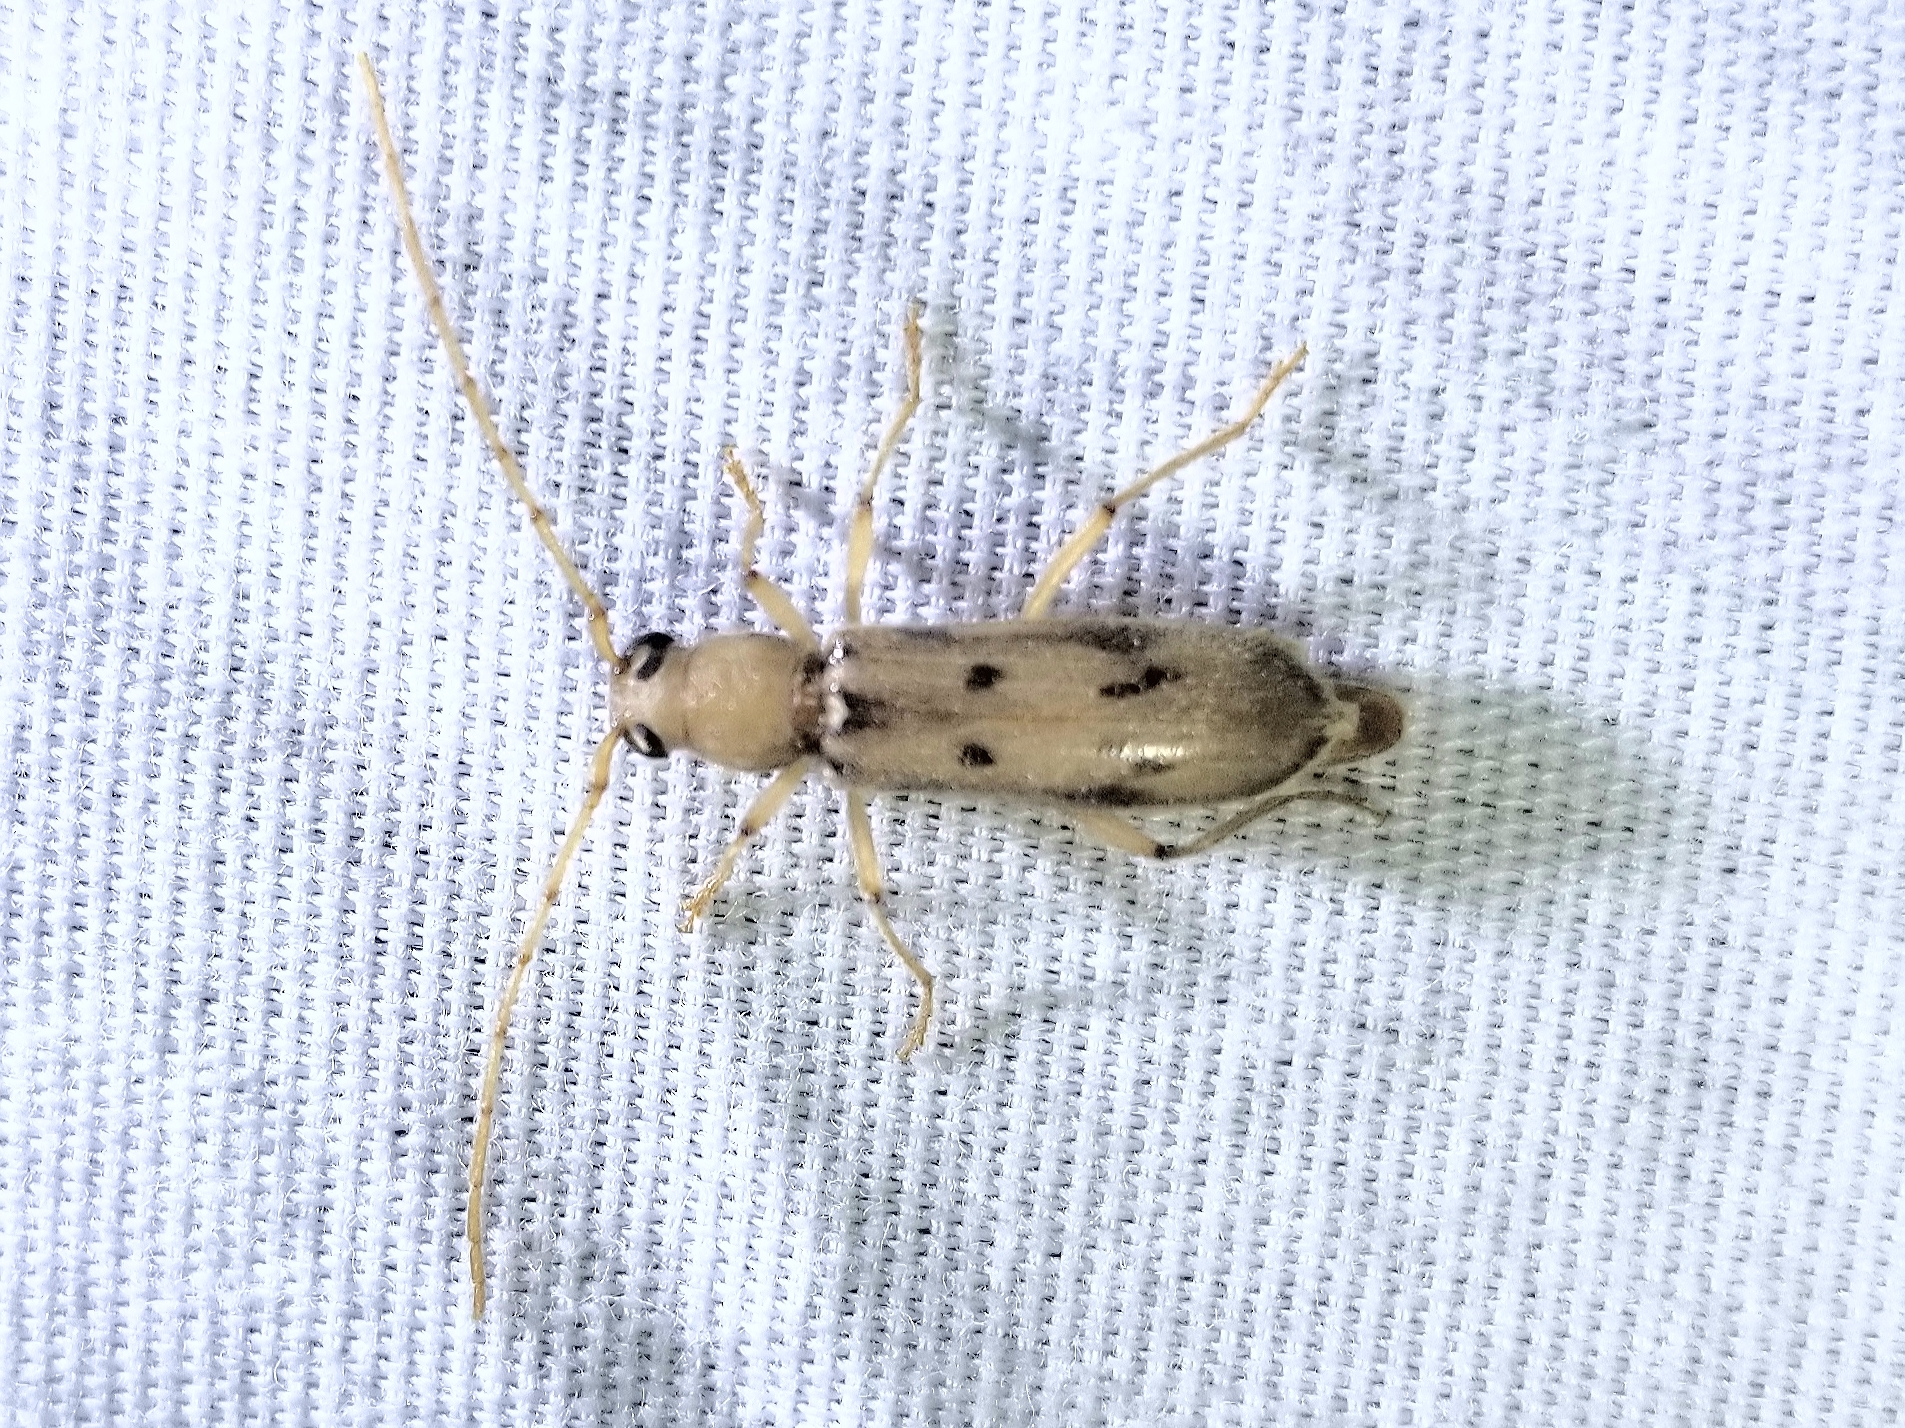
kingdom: Animalia
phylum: Arthropoda
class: Insecta
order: Coleoptera
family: Cerambycidae
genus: Achryson
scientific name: Achryson surinamum
